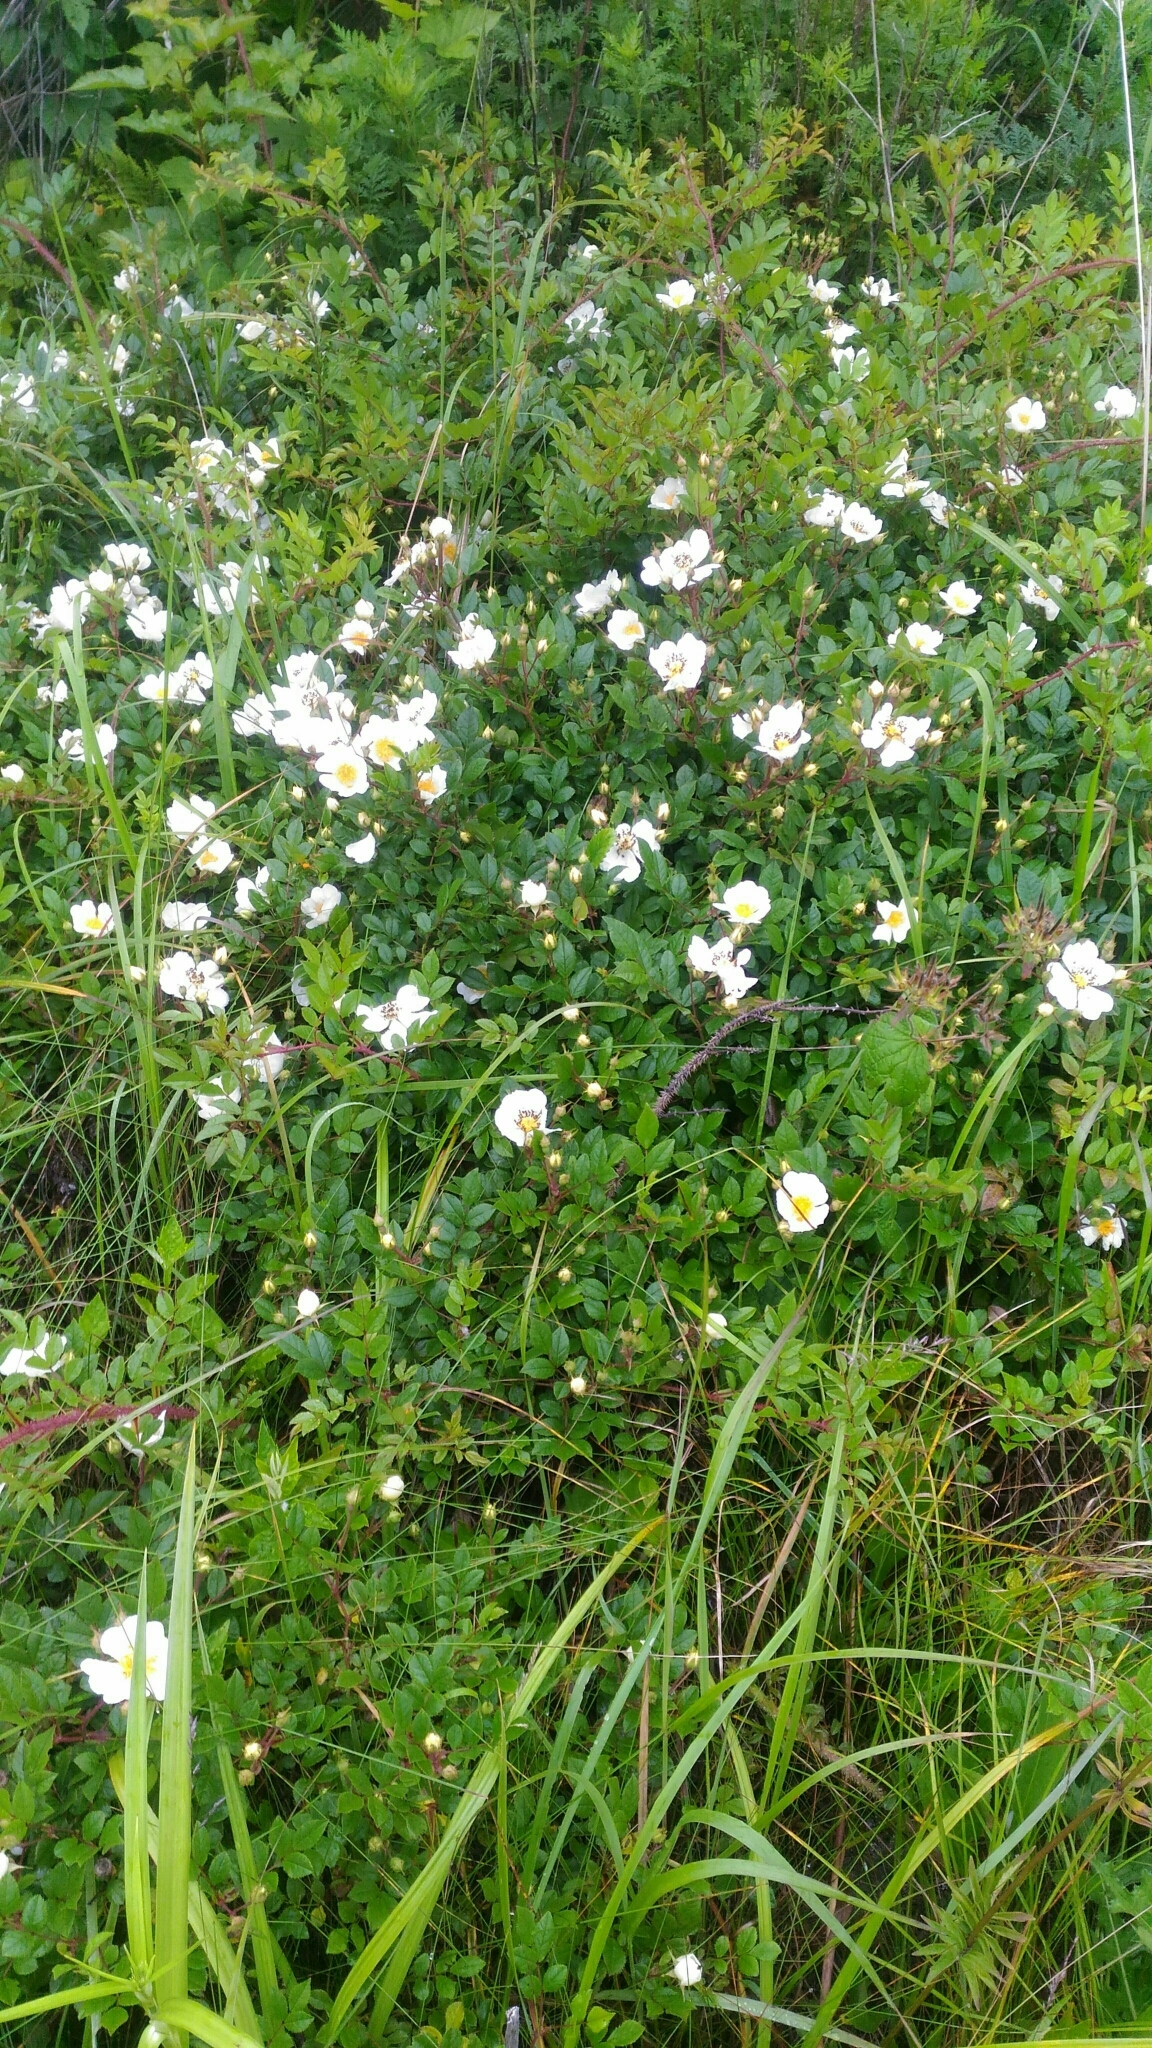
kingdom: Plantae
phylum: Tracheophyta
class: Magnoliopsida
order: Rosales
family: Rosaceae
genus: Rosa
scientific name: Rosa maximowicziana
